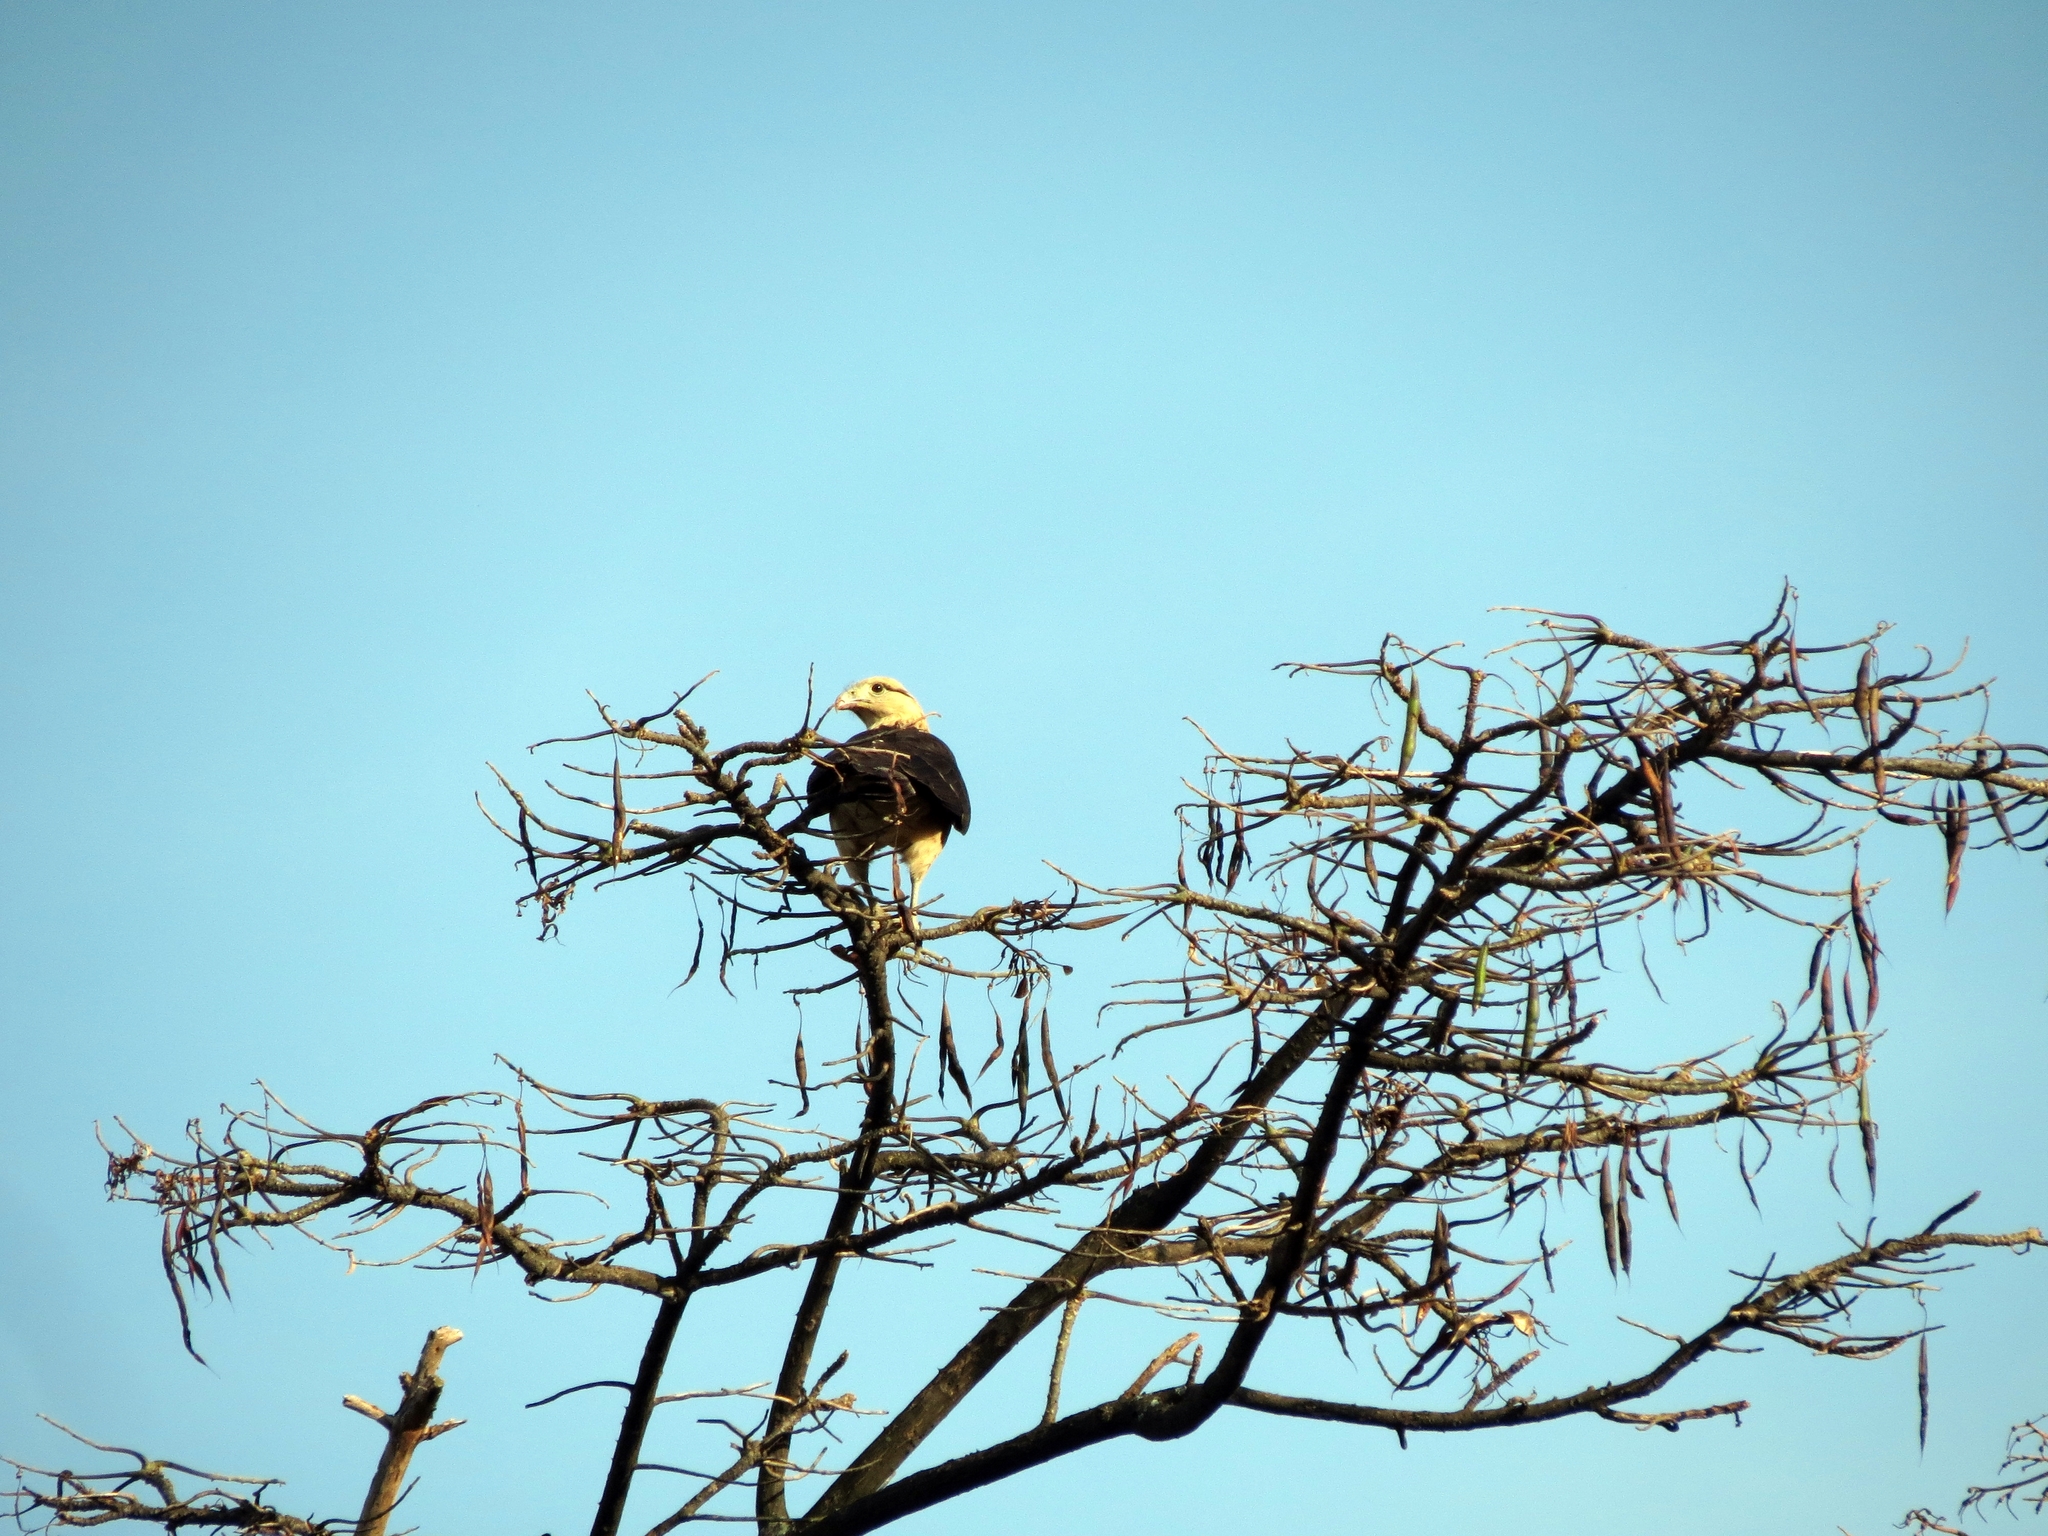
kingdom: Animalia
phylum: Chordata
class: Aves
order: Falconiformes
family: Falconidae
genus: Daptrius
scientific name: Daptrius
